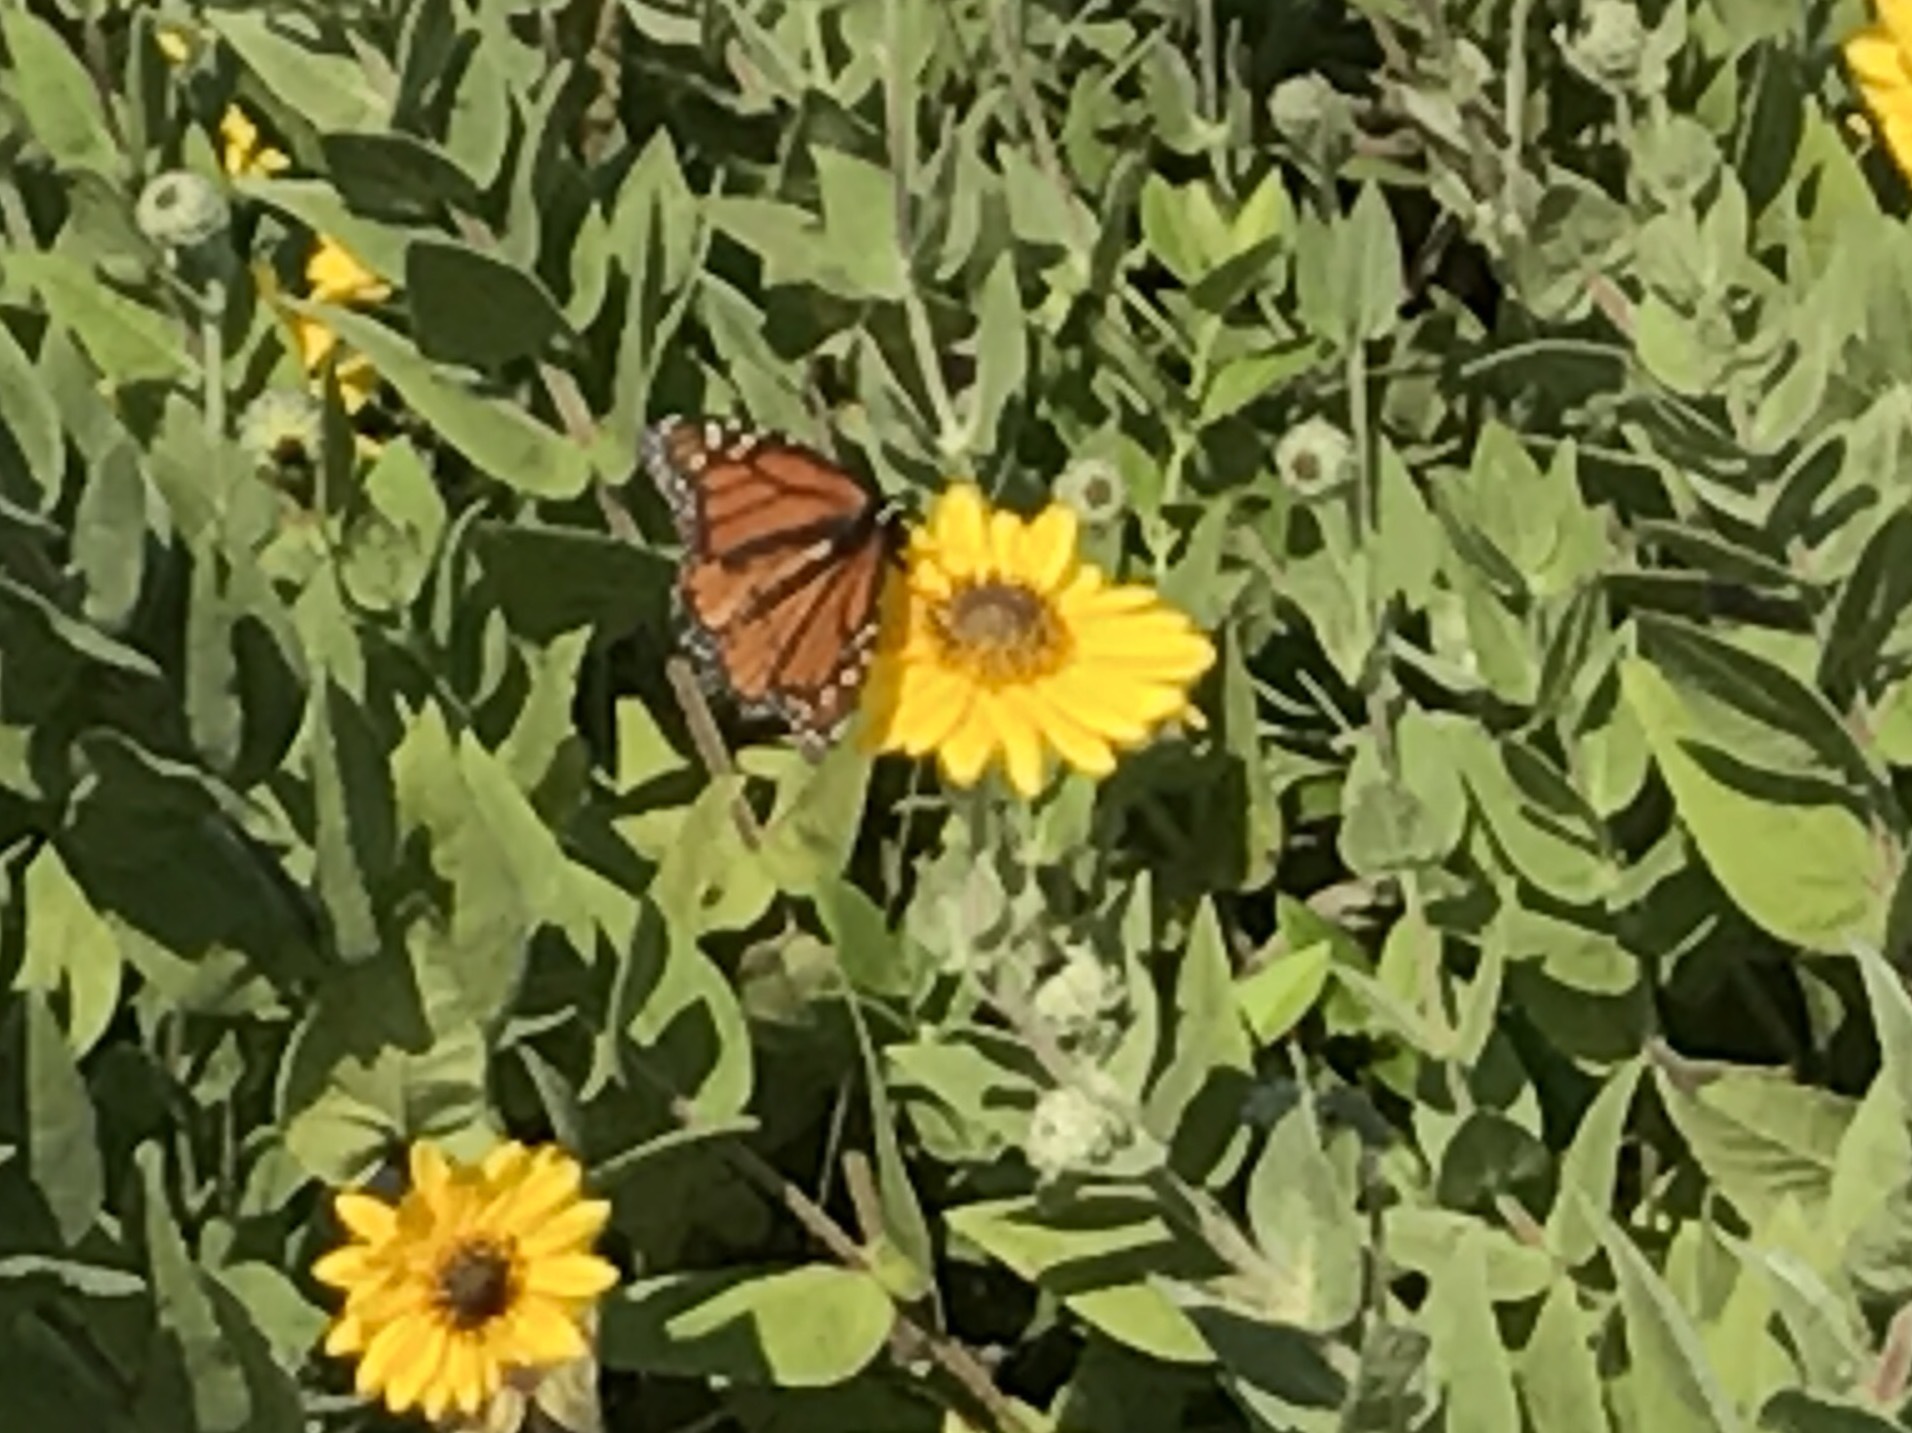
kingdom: Animalia
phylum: Arthropoda
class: Insecta
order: Lepidoptera
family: Nymphalidae
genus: Danaus
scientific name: Danaus plexippus
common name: Monarch
